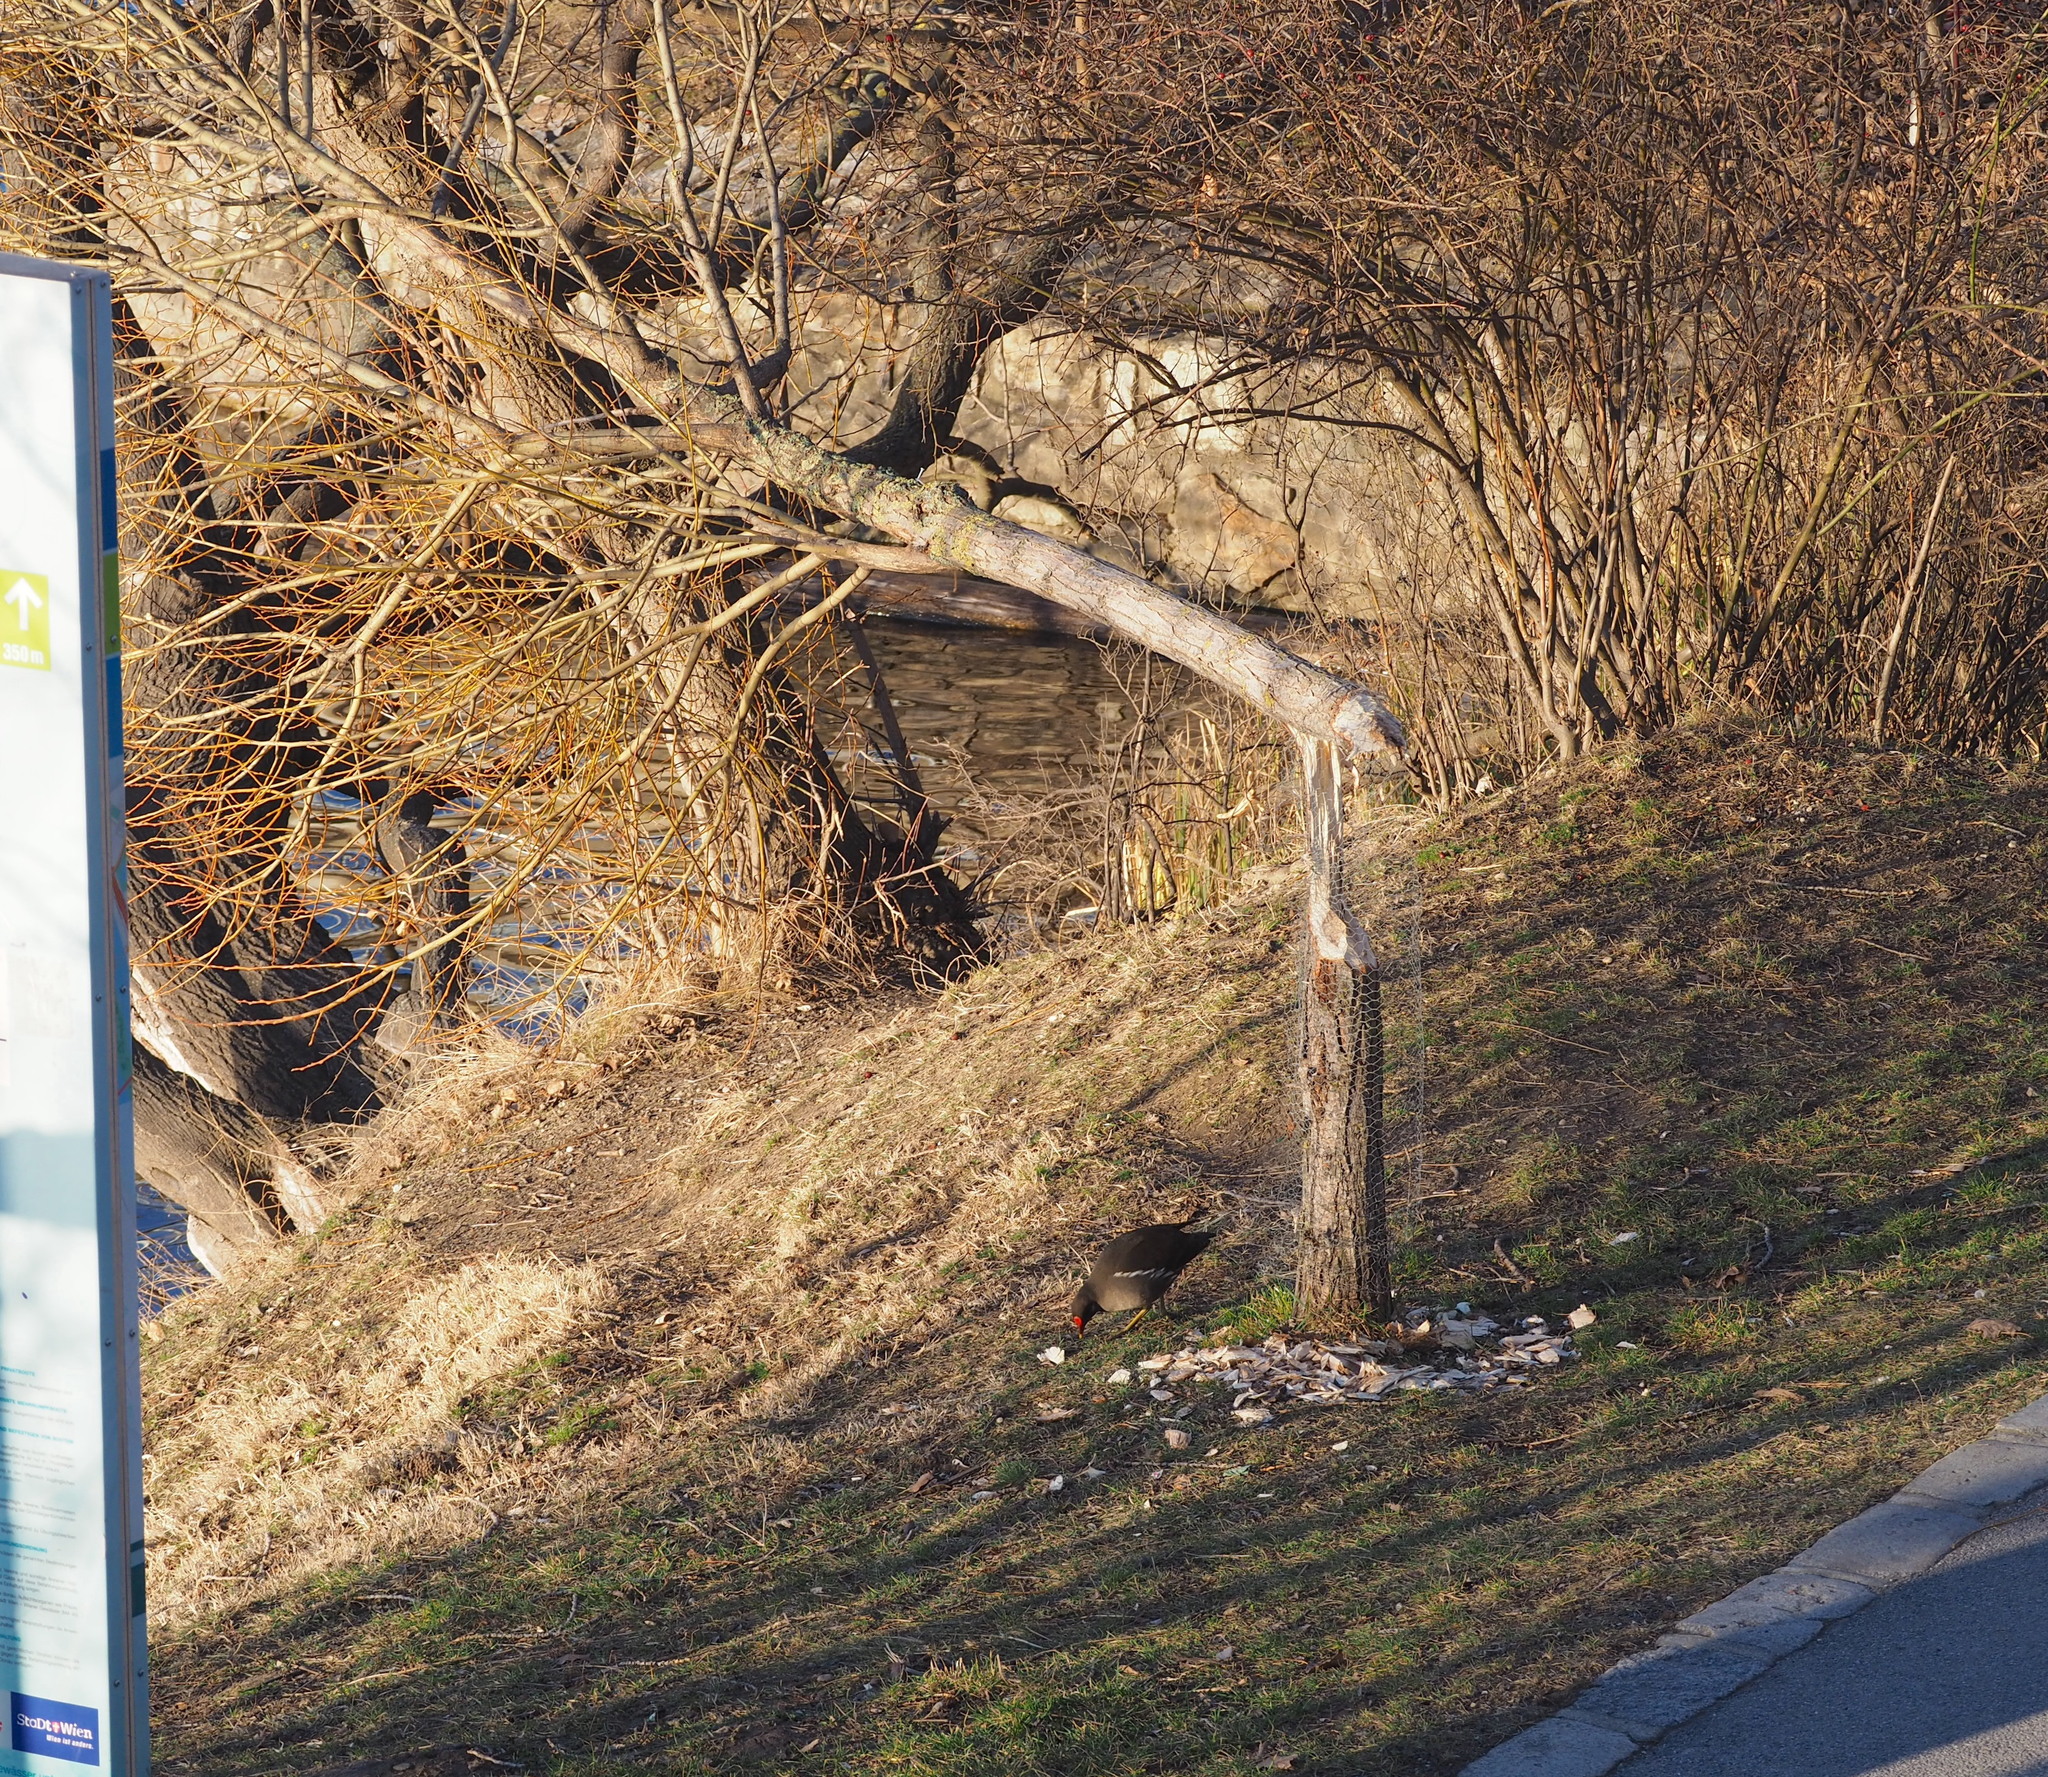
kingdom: Animalia
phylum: Chordata
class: Mammalia
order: Rodentia
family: Castoridae
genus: Castor
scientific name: Castor fiber
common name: Eurasian beaver
